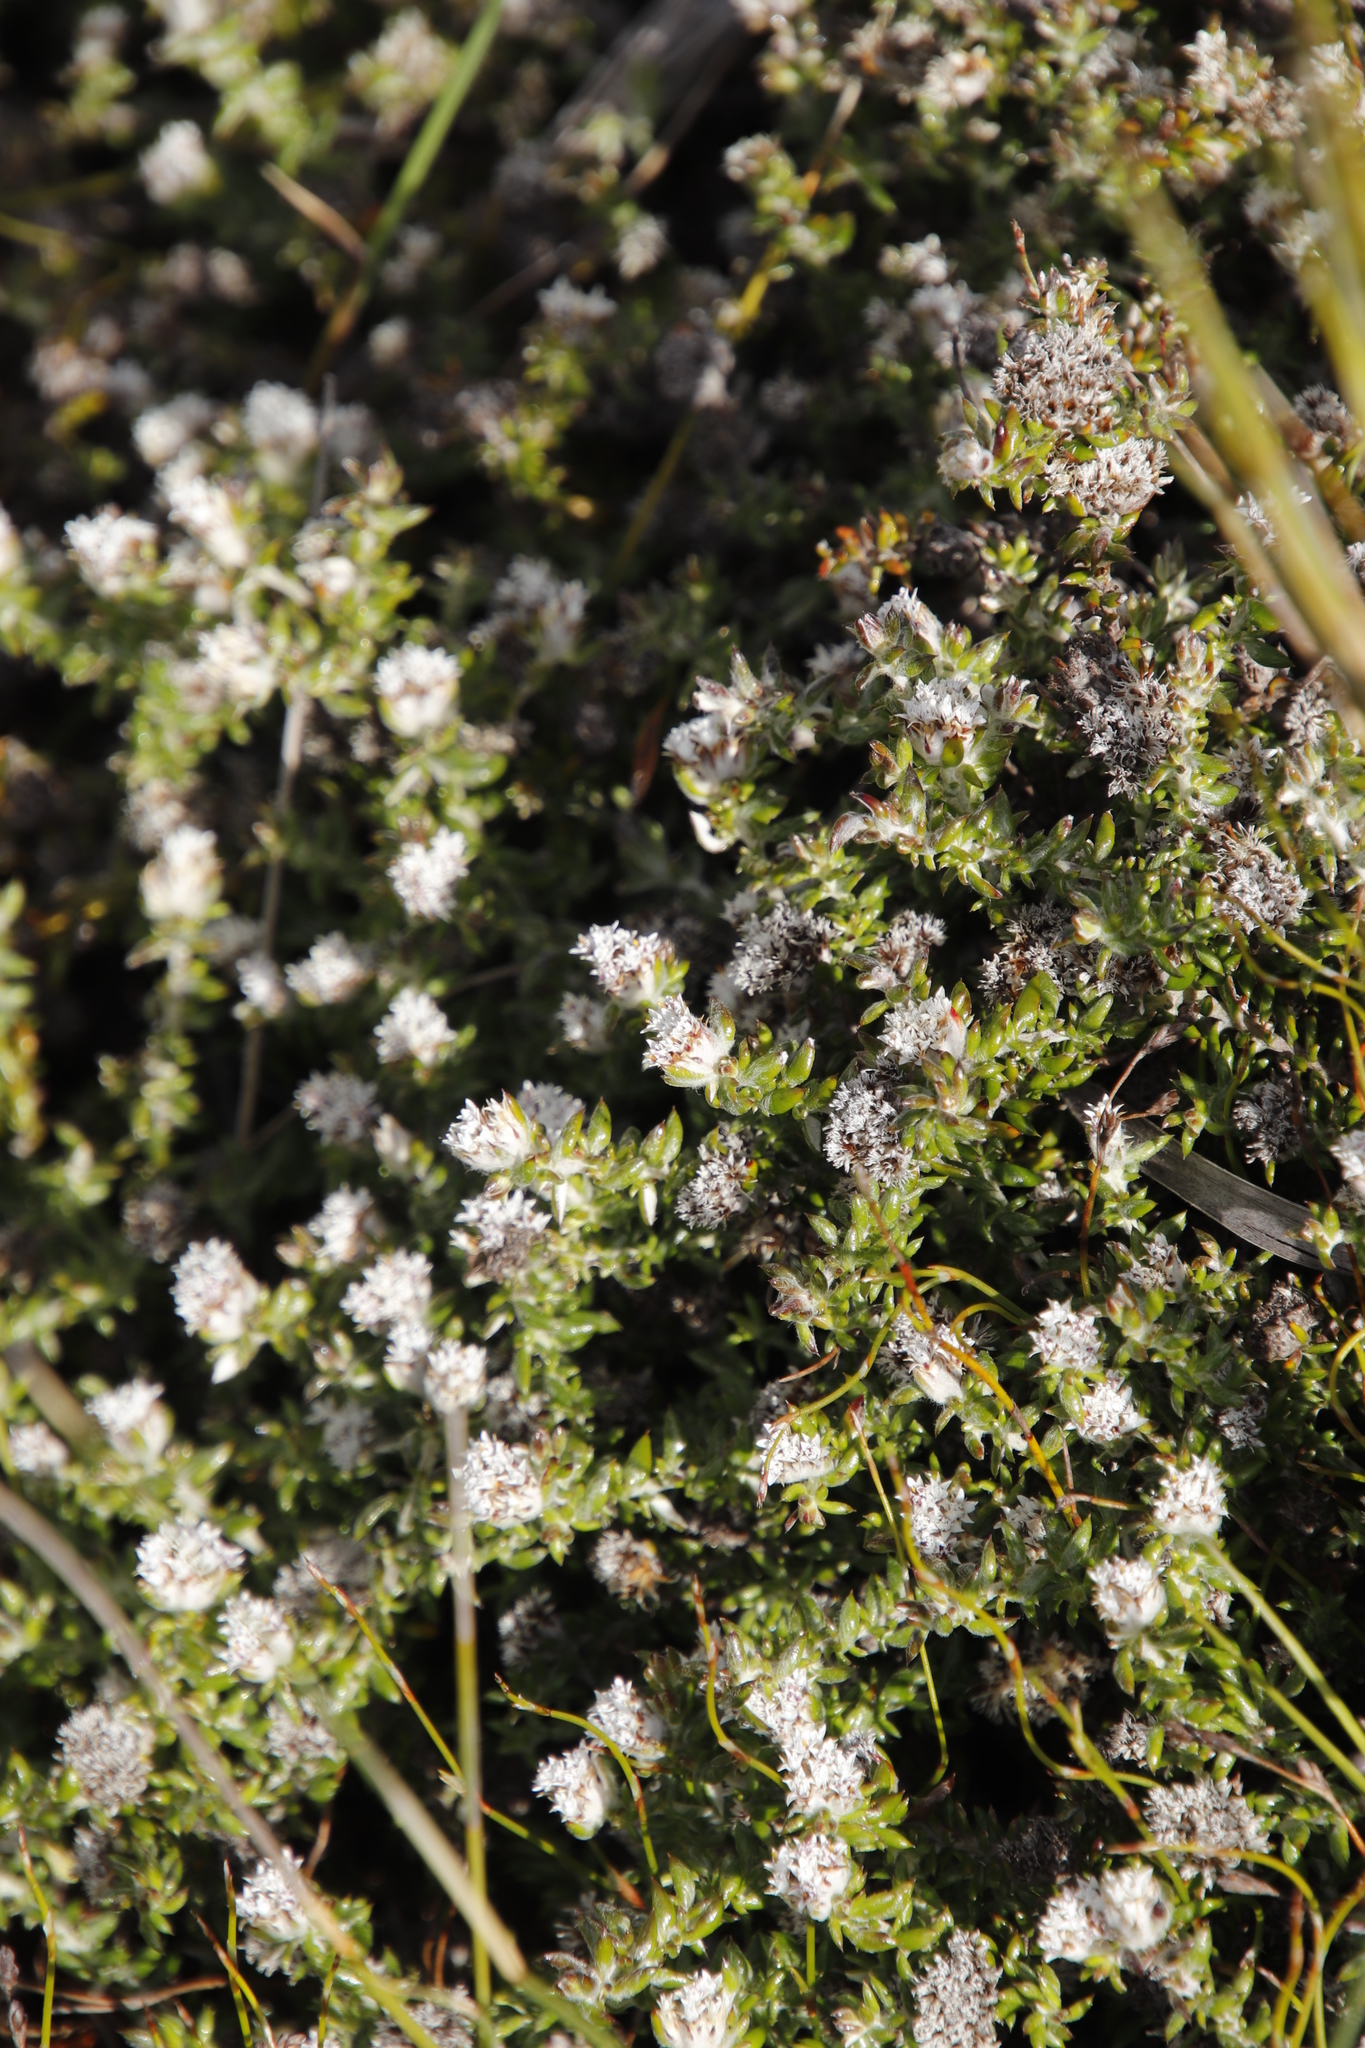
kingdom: Plantae
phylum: Tracheophyta
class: Magnoliopsida
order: Asterales
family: Asteraceae
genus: Metalasia
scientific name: Metalasia divergens
